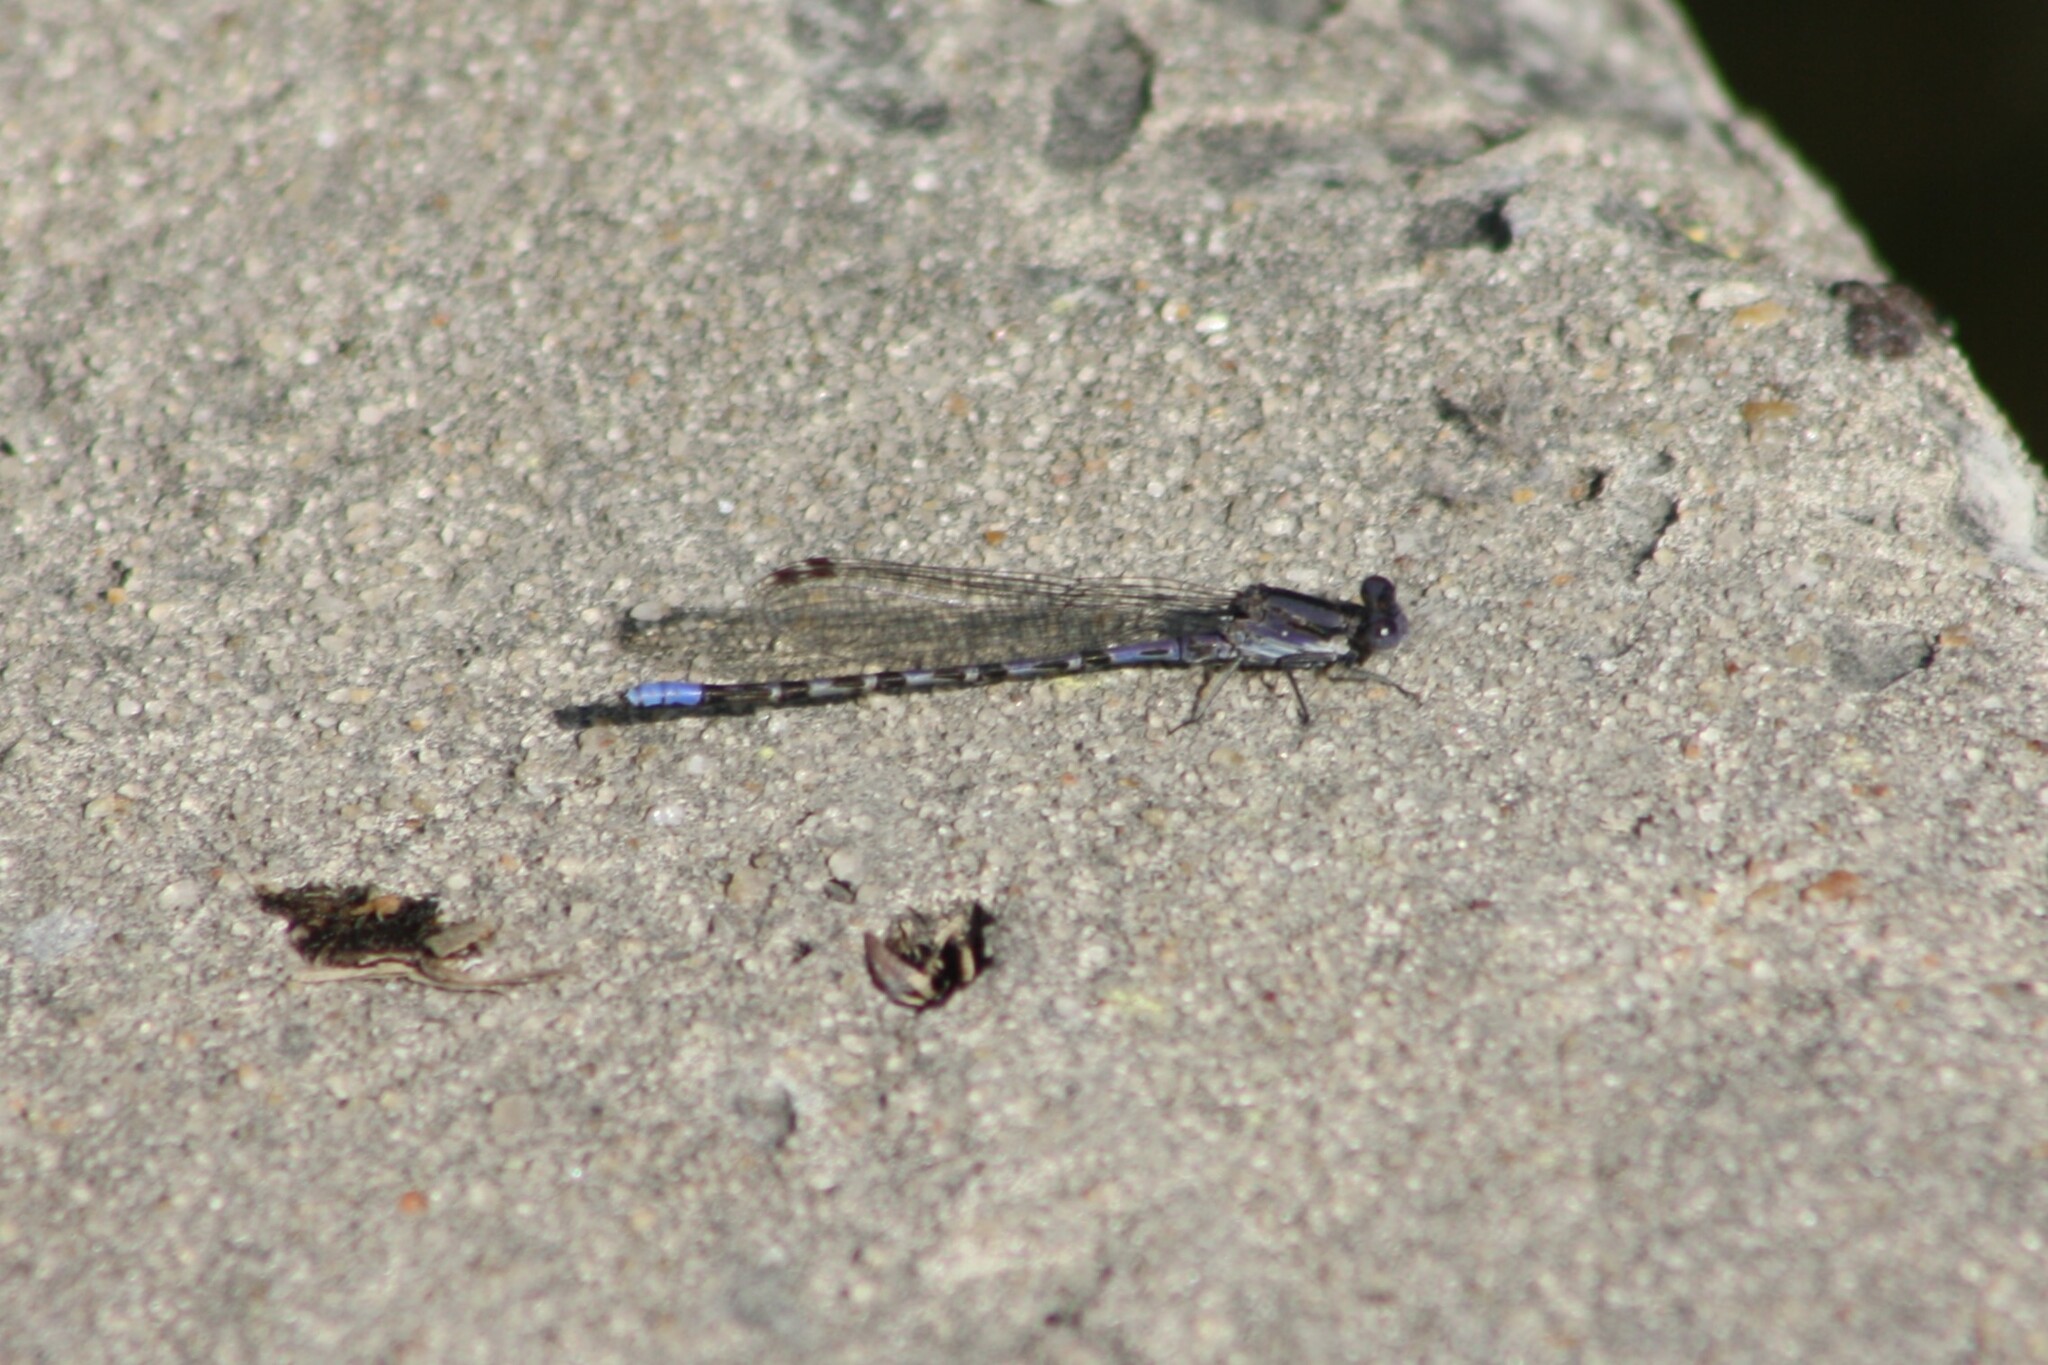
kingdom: Animalia
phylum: Arthropoda
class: Insecta
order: Odonata
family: Coenagrionidae
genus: Argia
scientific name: Argia immunda
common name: Kiowa dancer
